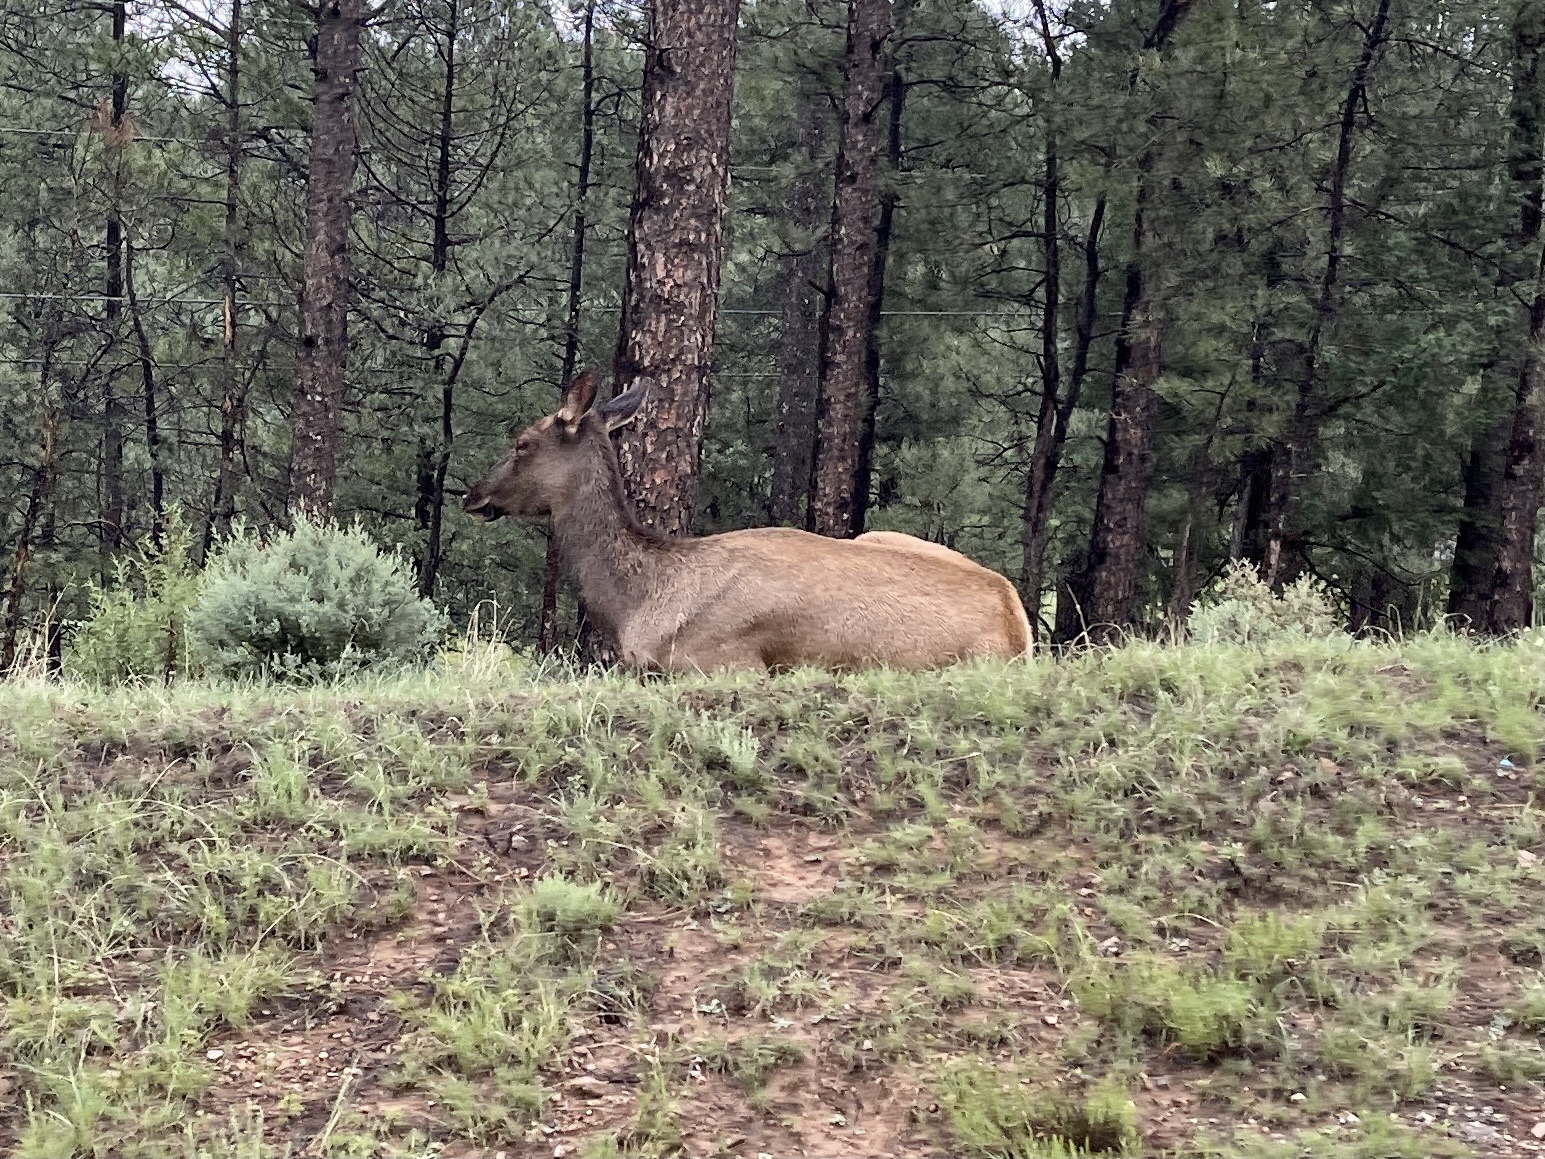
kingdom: Animalia
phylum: Chordata
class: Mammalia
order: Artiodactyla
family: Cervidae
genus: Cervus
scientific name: Cervus elaphus
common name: Red deer
